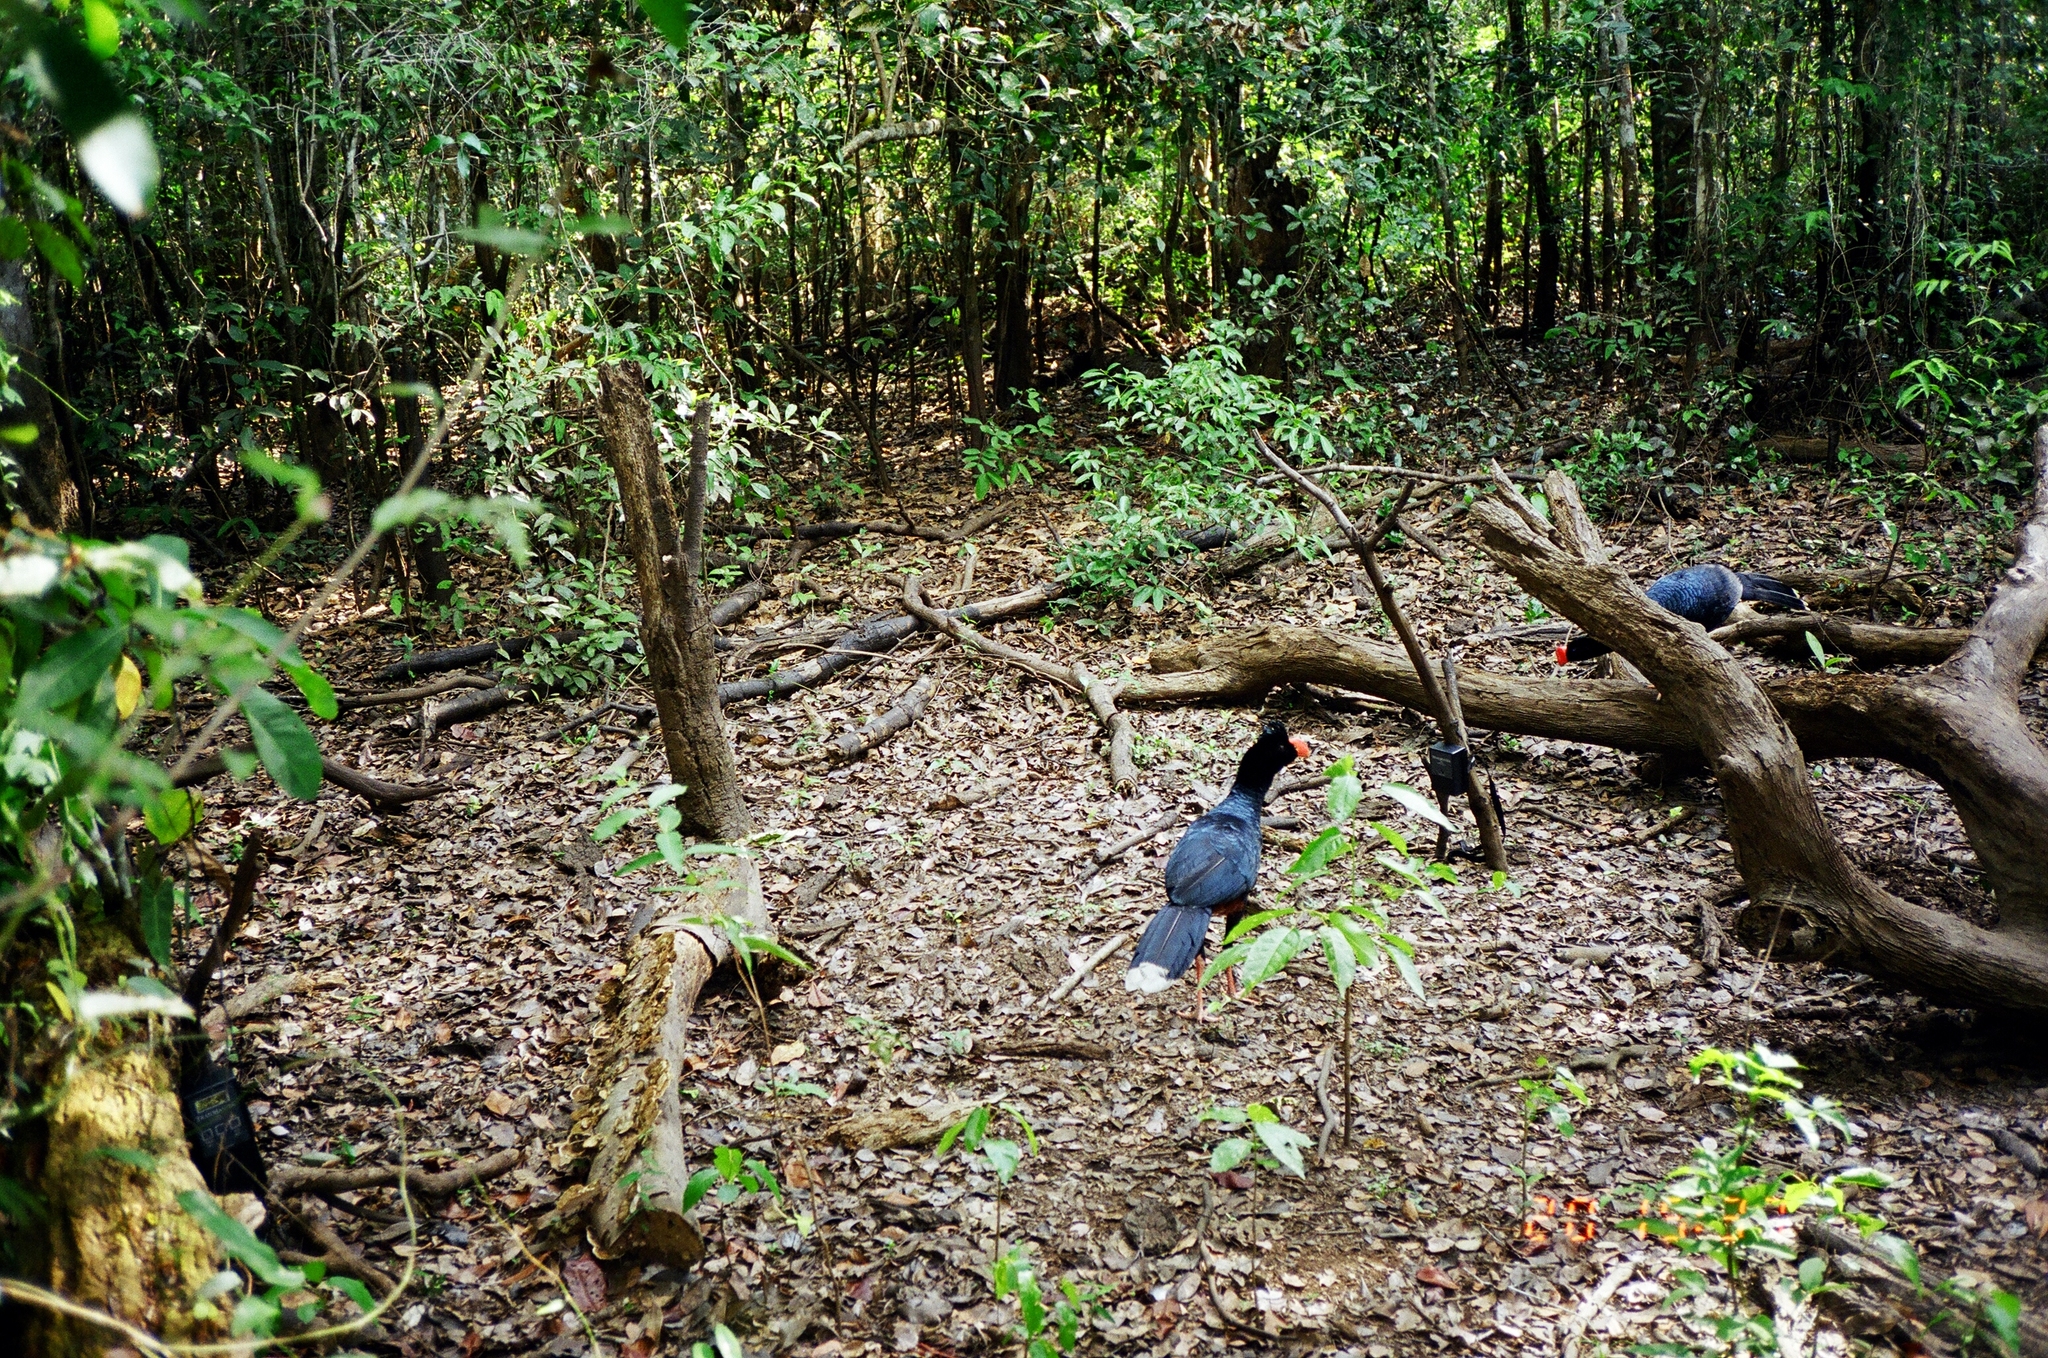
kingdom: Animalia
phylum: Chordata
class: Aves
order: Galliformes
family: Cracidae
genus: Mitu
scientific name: Mitu tuberosum
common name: Razor-billed curassow
